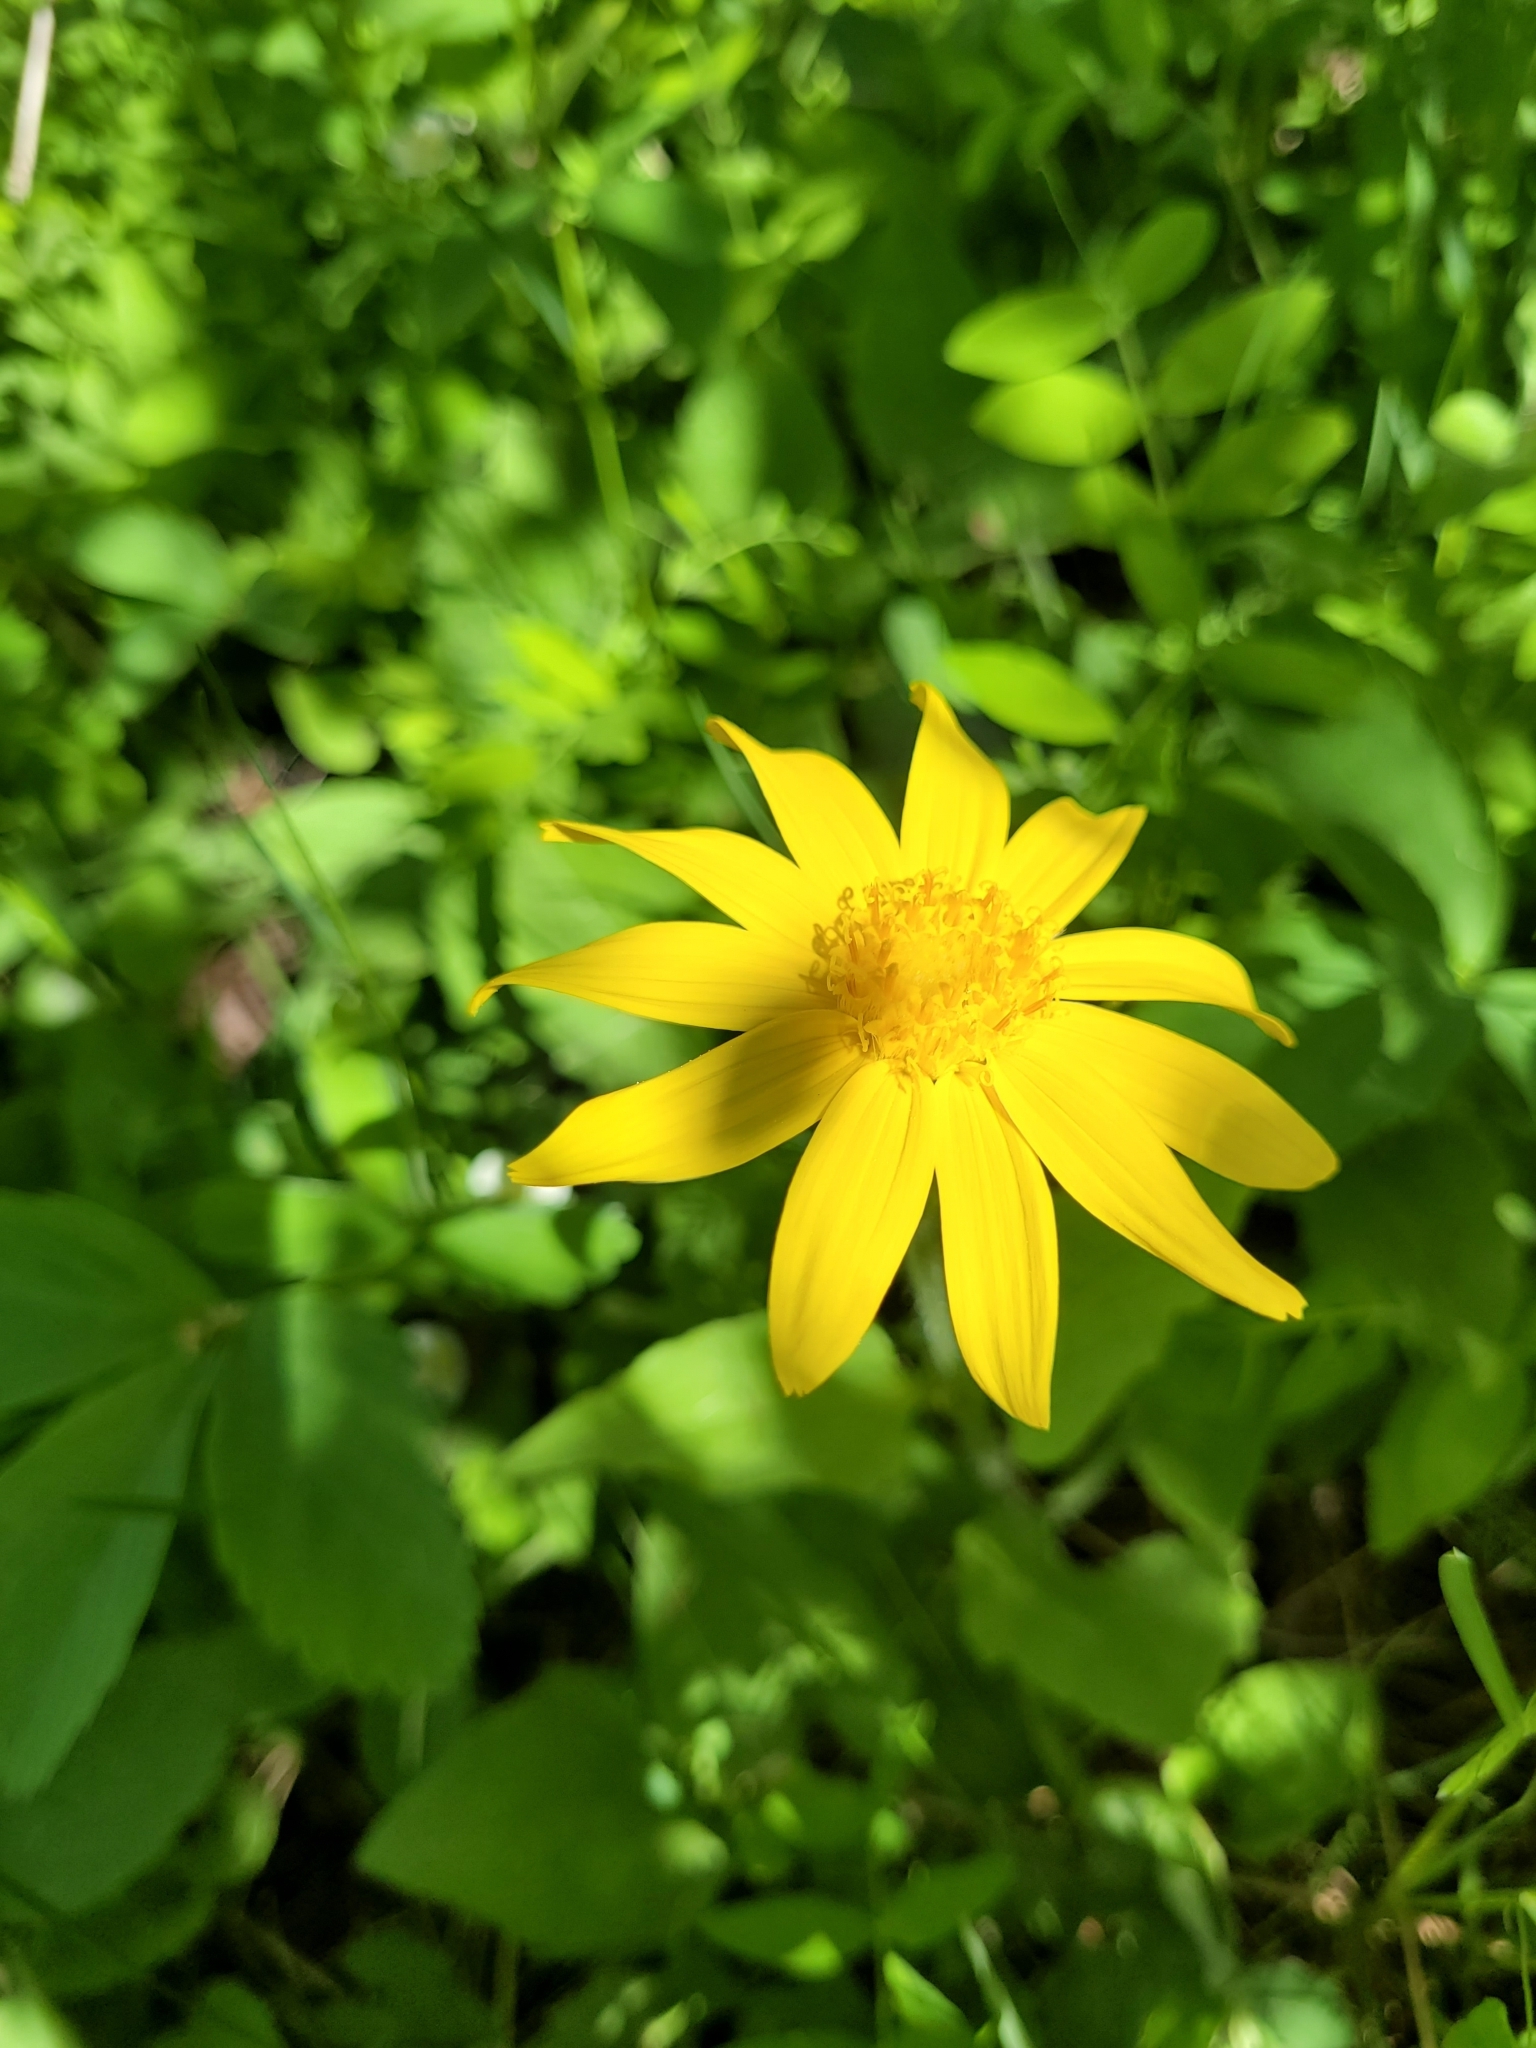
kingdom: Plantae
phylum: Tracheophyta
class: Magnoliopsida
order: Asterales
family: Asteraceae
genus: Arnica
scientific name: Arnica cordifolia
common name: Heart-leaf arnica
